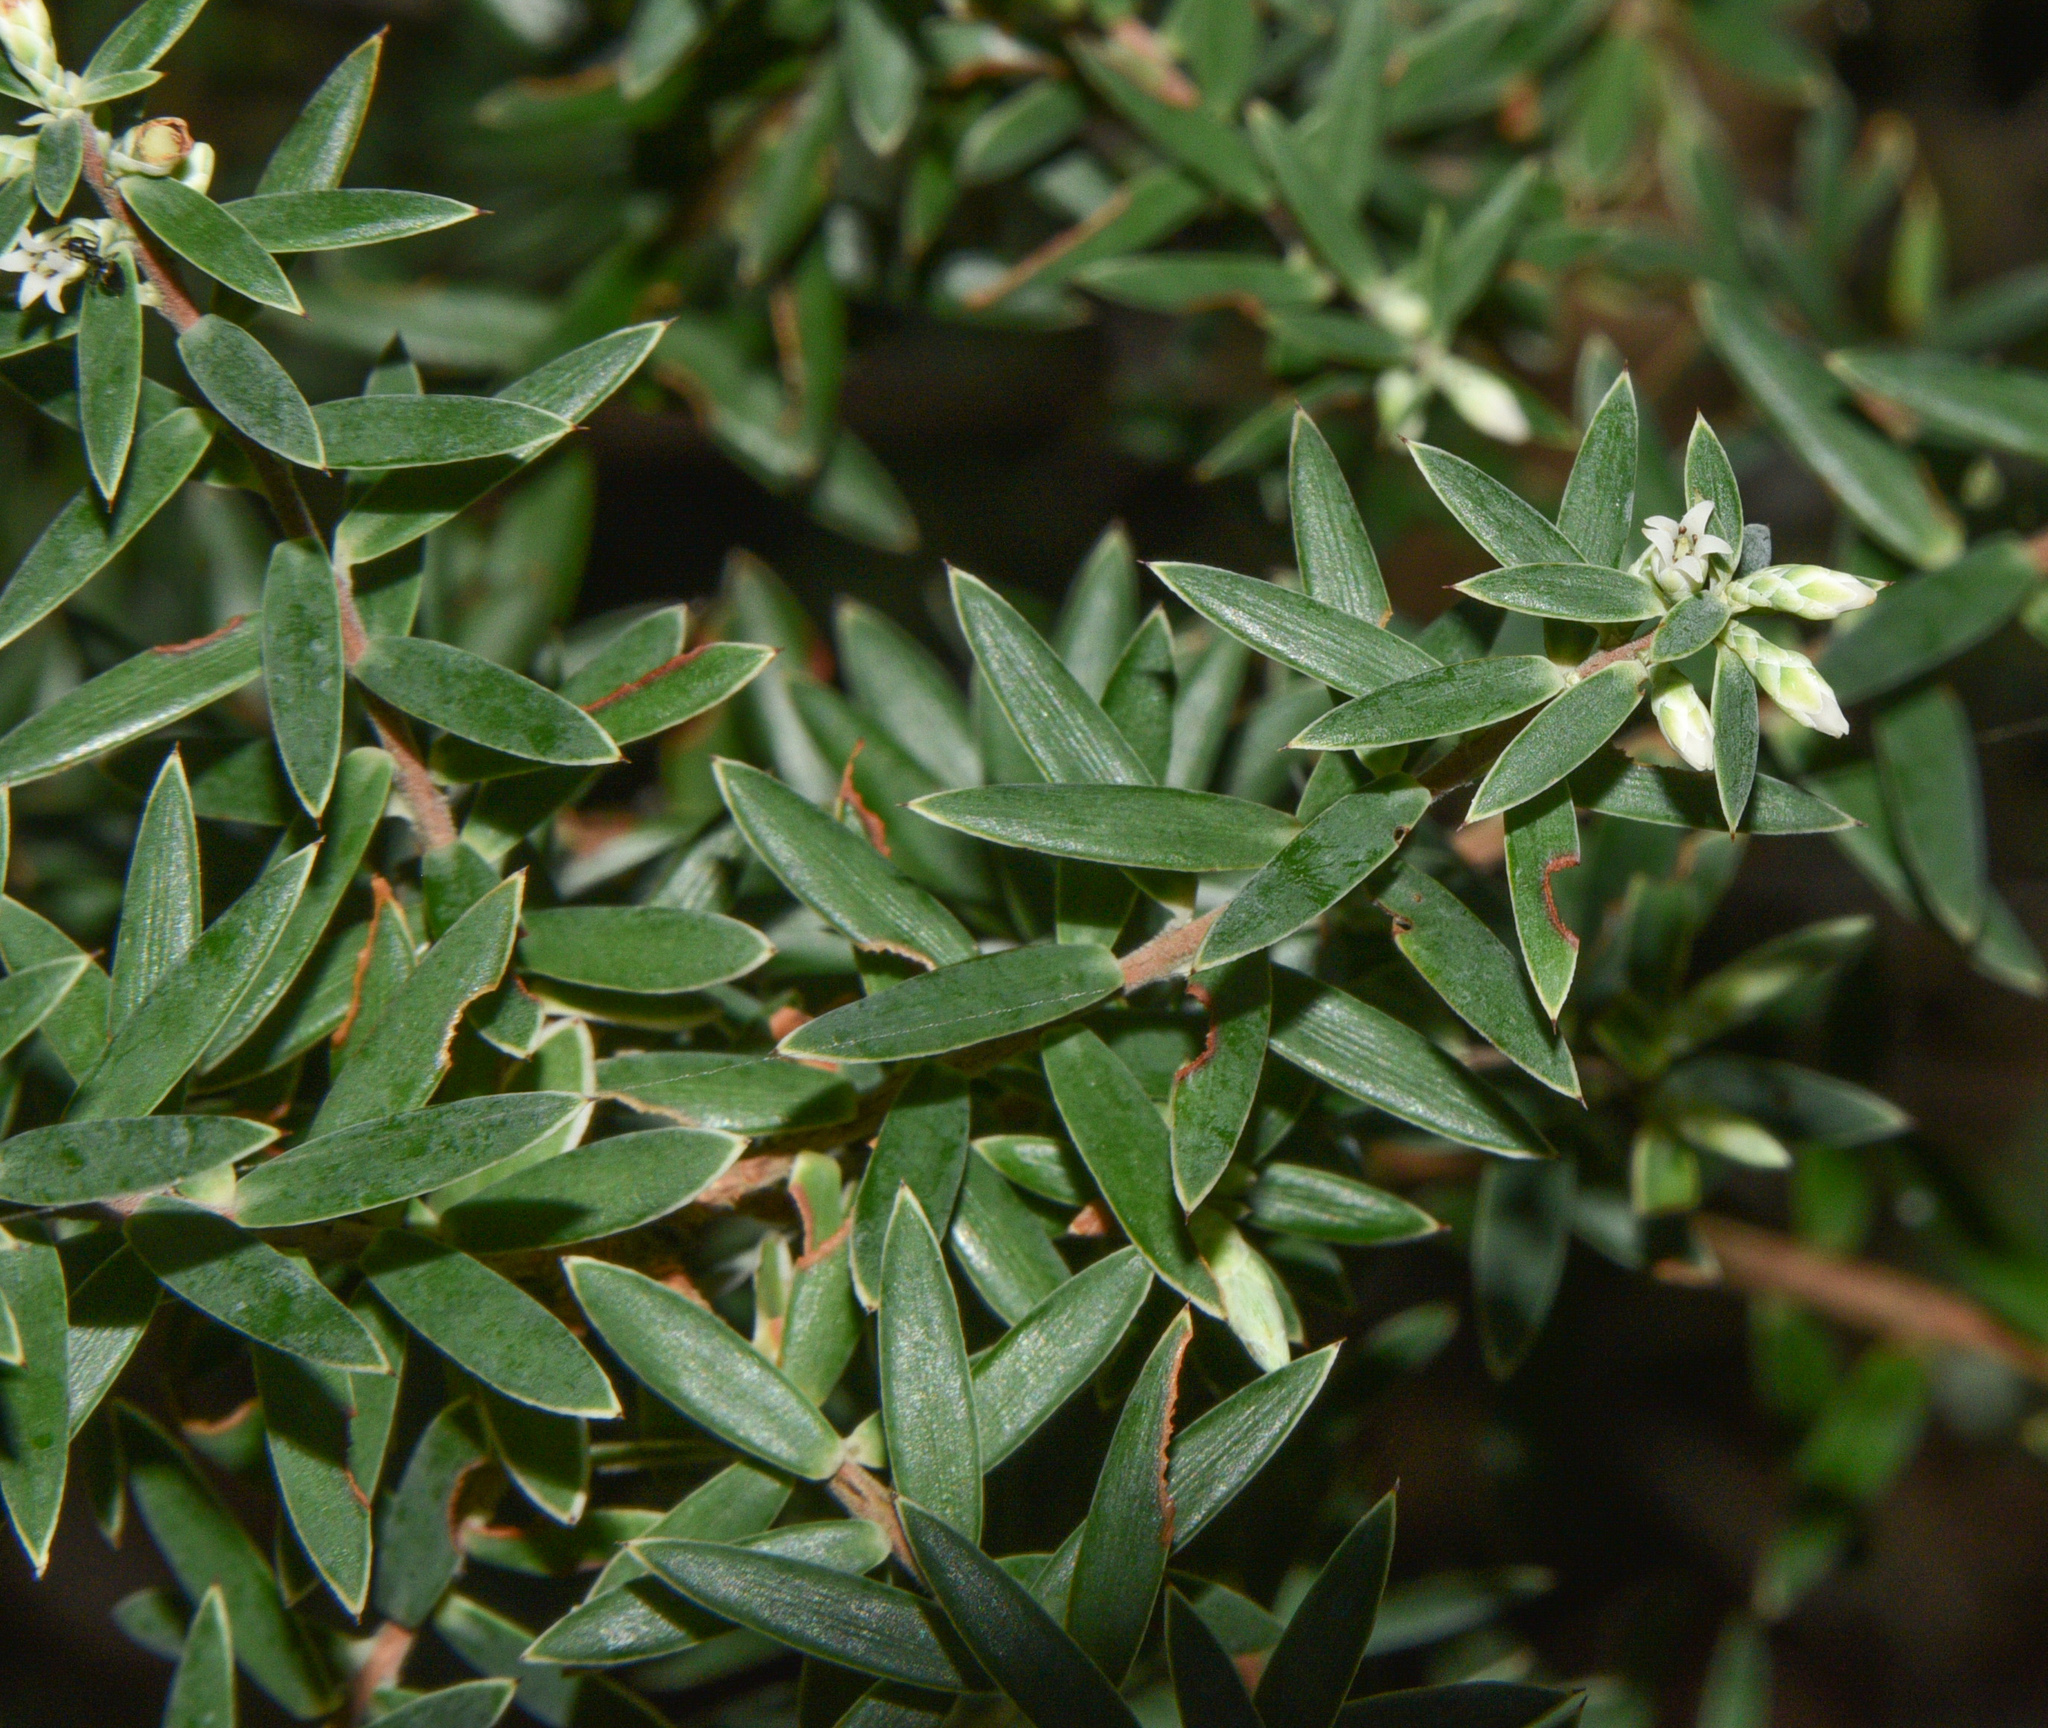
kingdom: Plantae
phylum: Tracheophyta
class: Magnoliopsida
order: Ericales
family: Ericaceae
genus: Leptecophylla
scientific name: Leptecophylla tameiameiae
